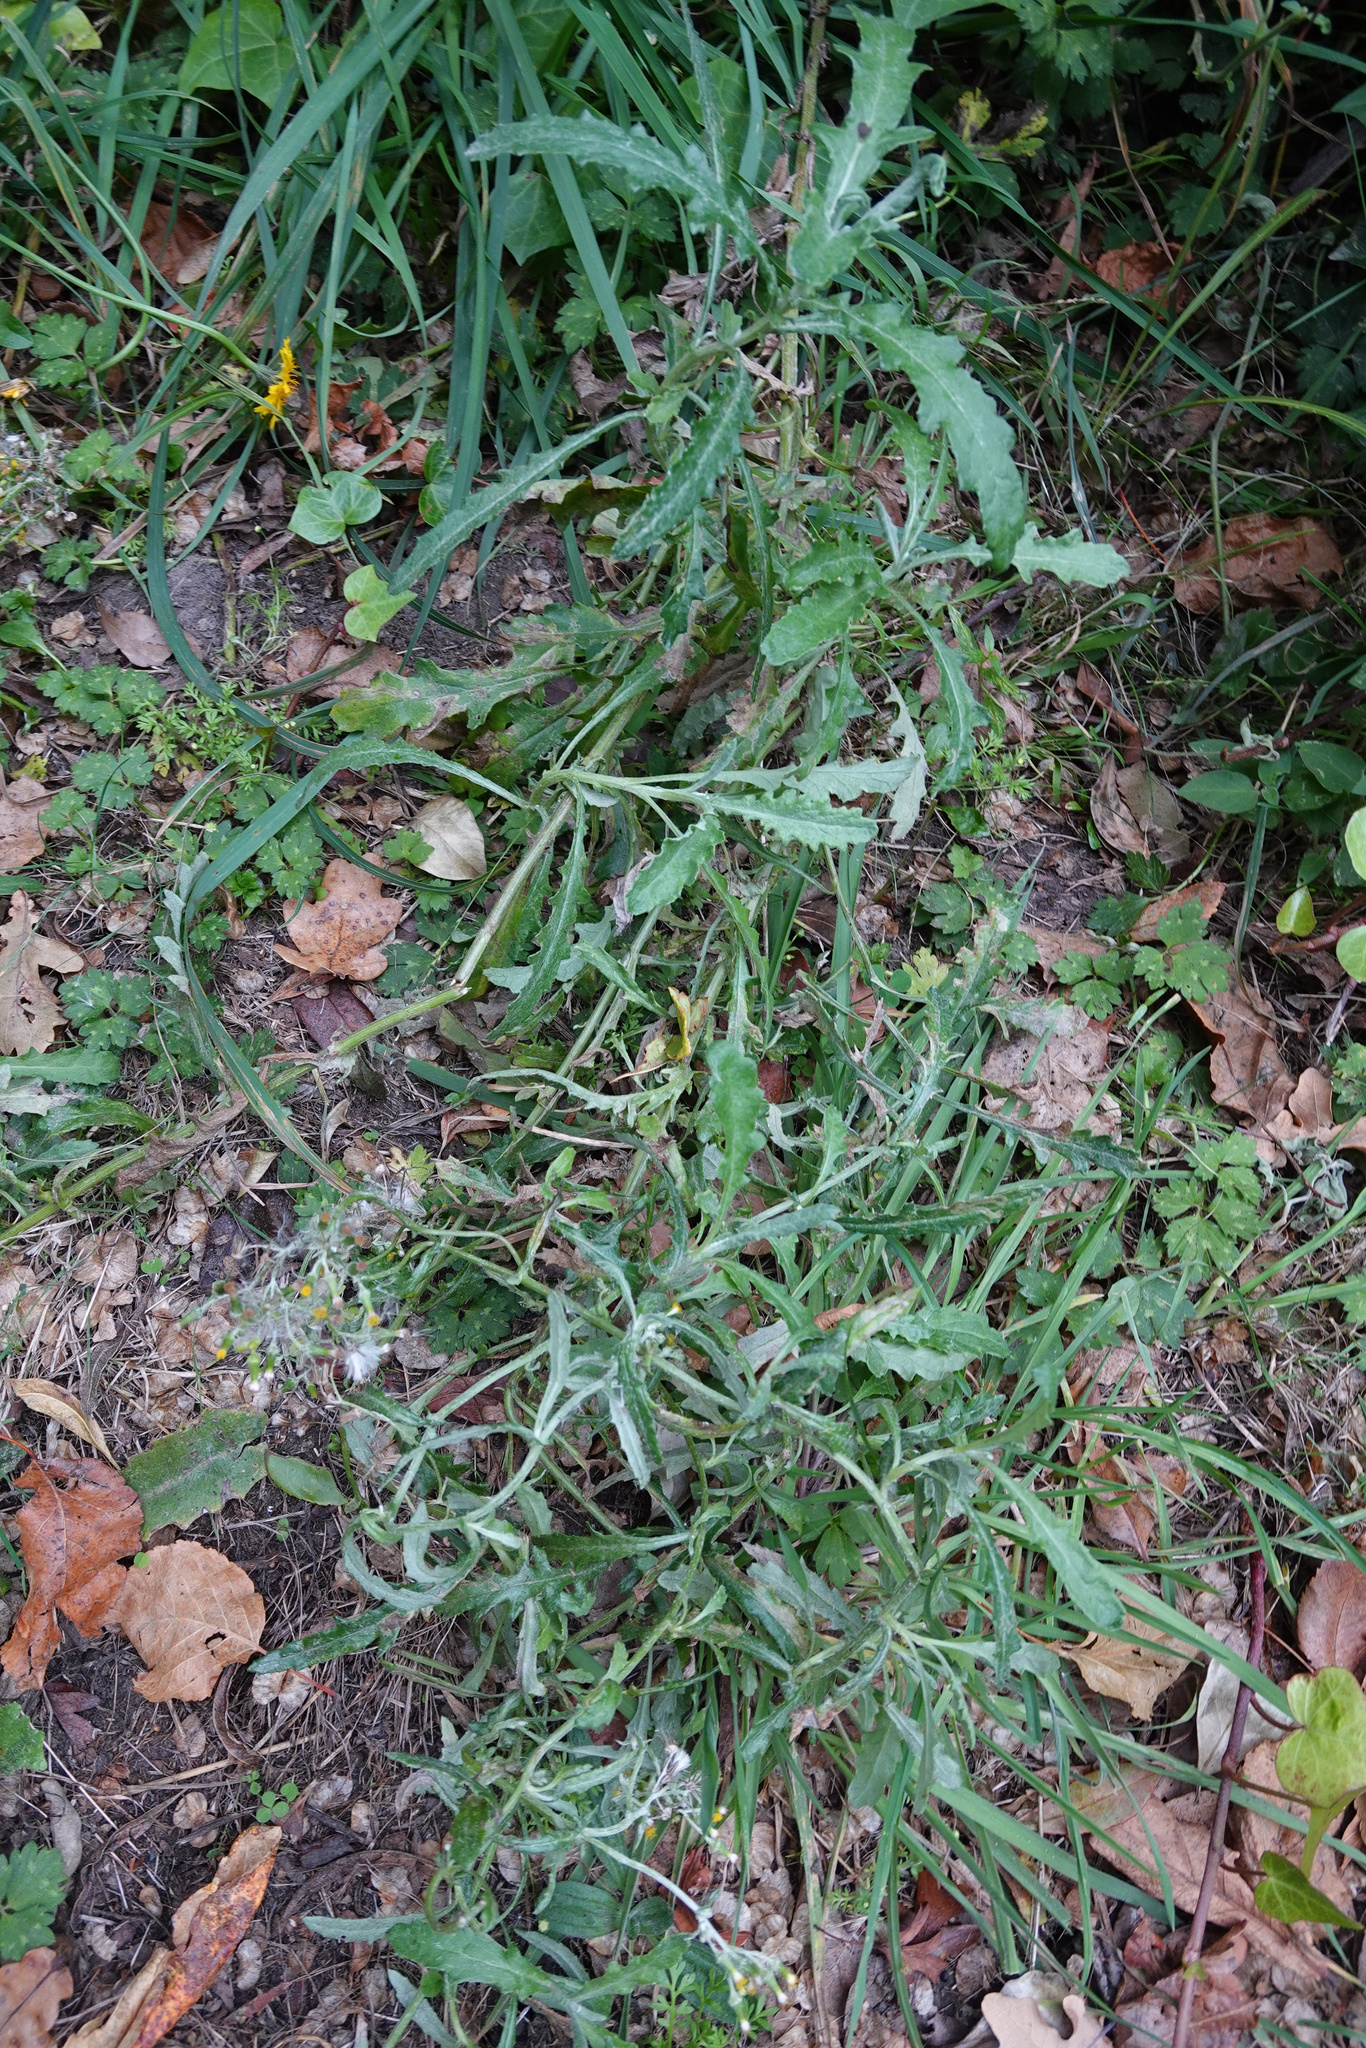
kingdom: Plantae
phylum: Tracheophyta
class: Magnoliopsida
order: Asterales
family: Asteraceae
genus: Senecio
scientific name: Senecio glomeratus
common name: Cutleaf burnweed
